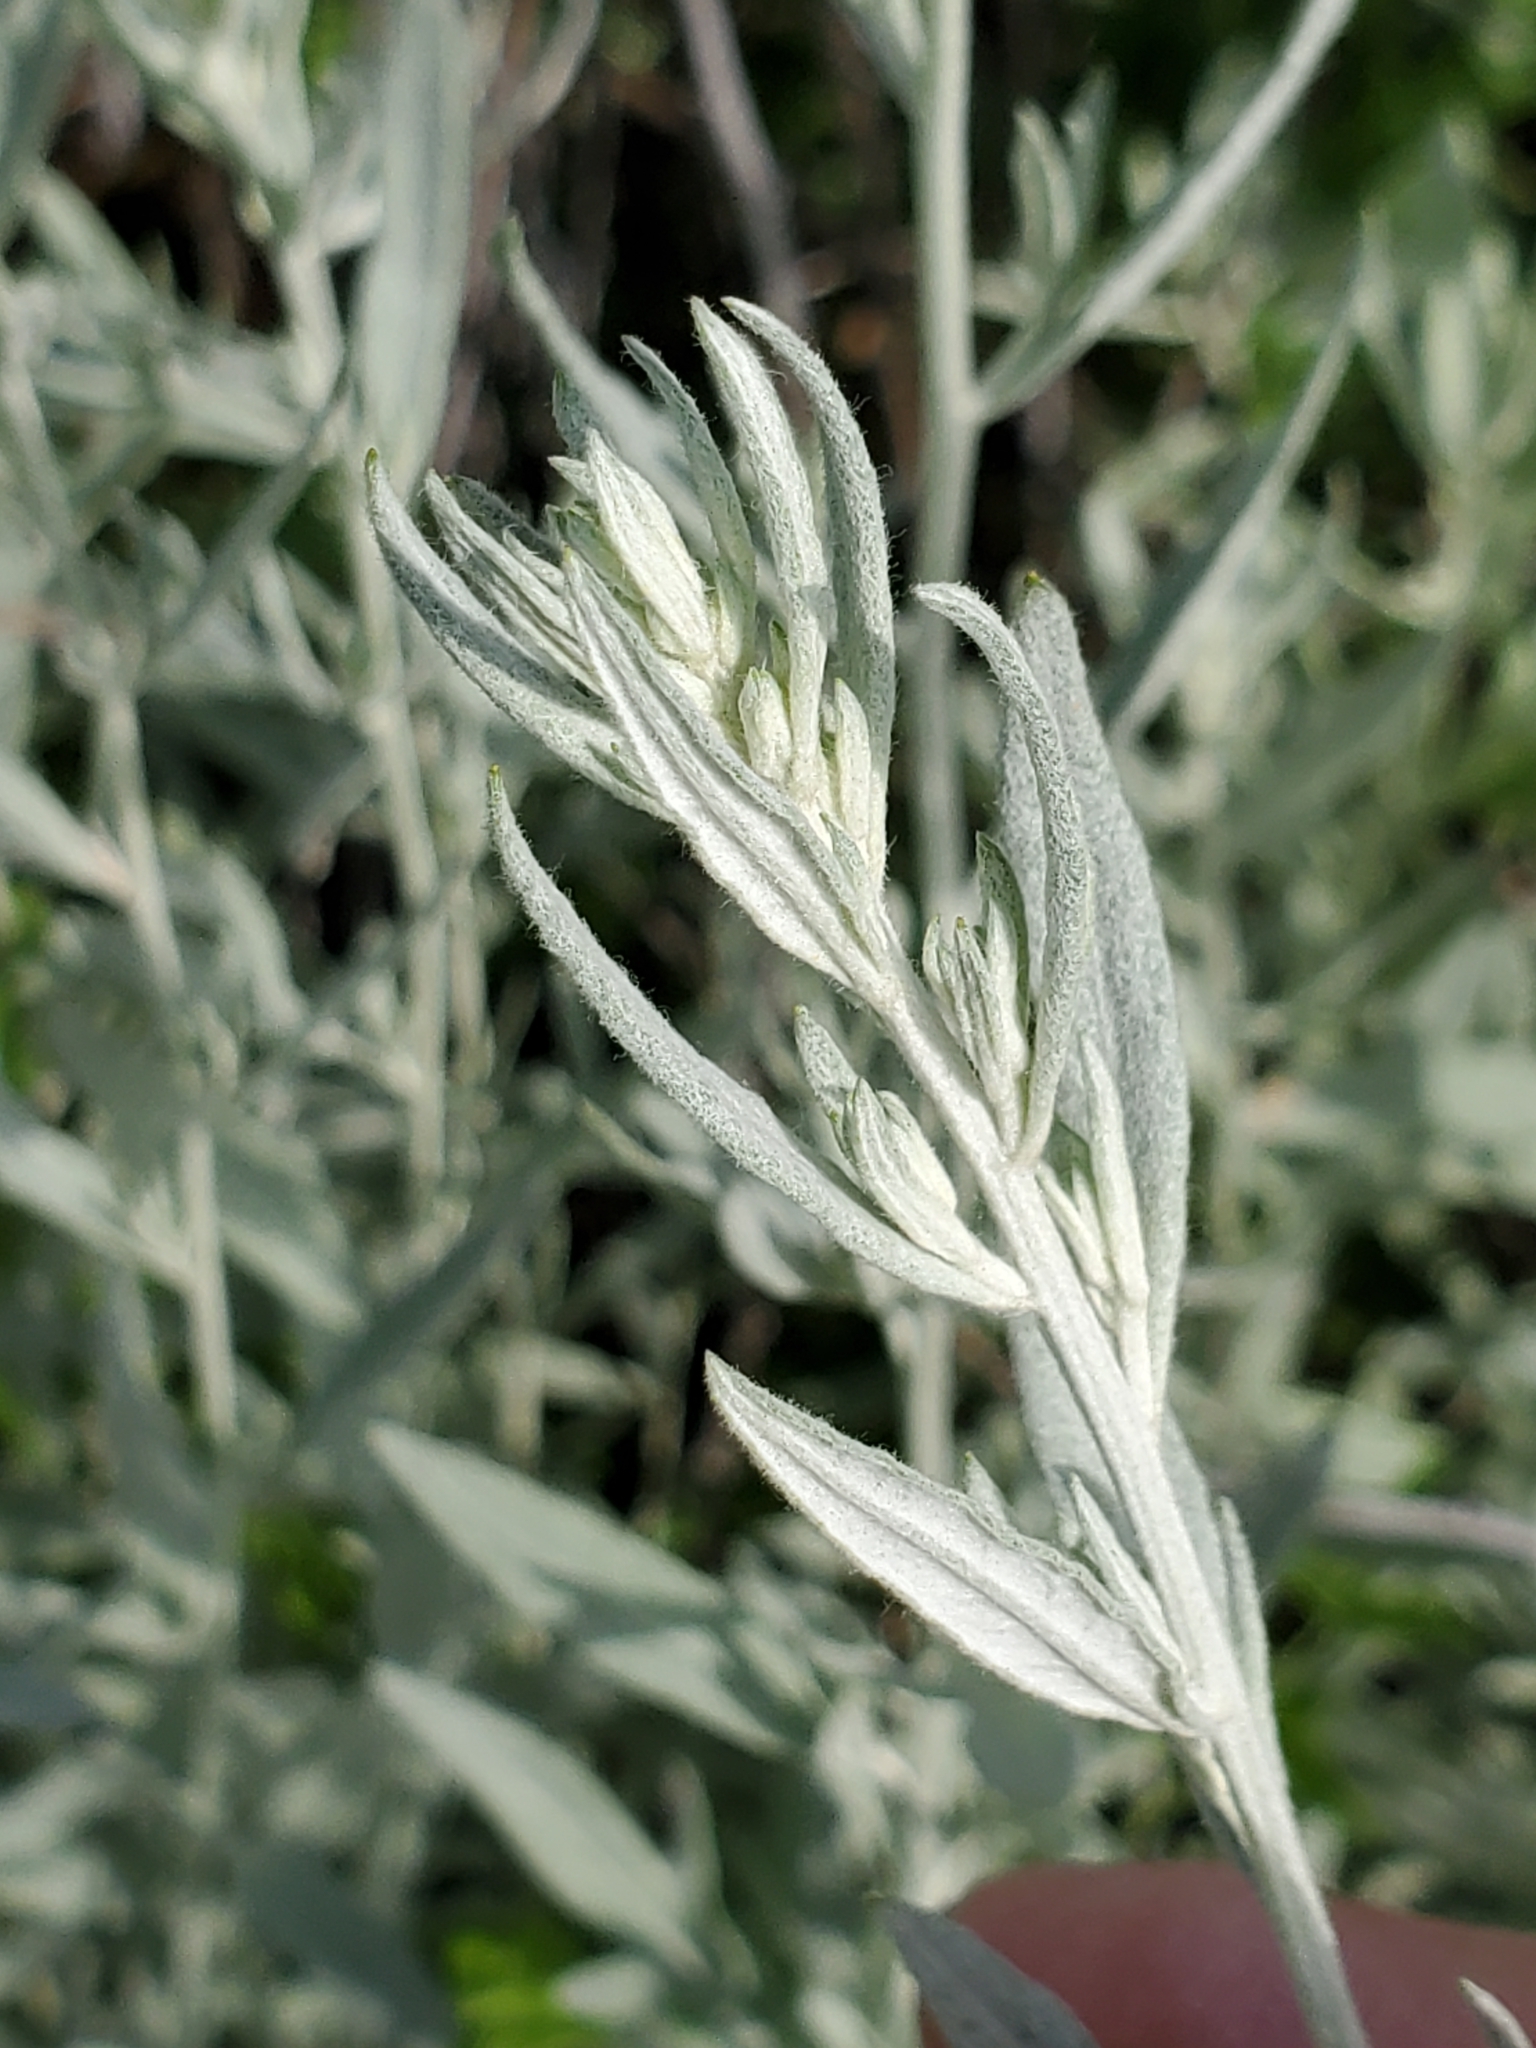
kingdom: Plantae
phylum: Tracheophyta
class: Magnoliopsida
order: Asterales
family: Asteraceae
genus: Artemisia
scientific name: Artemisia ludoviciana
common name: Western mugwort
